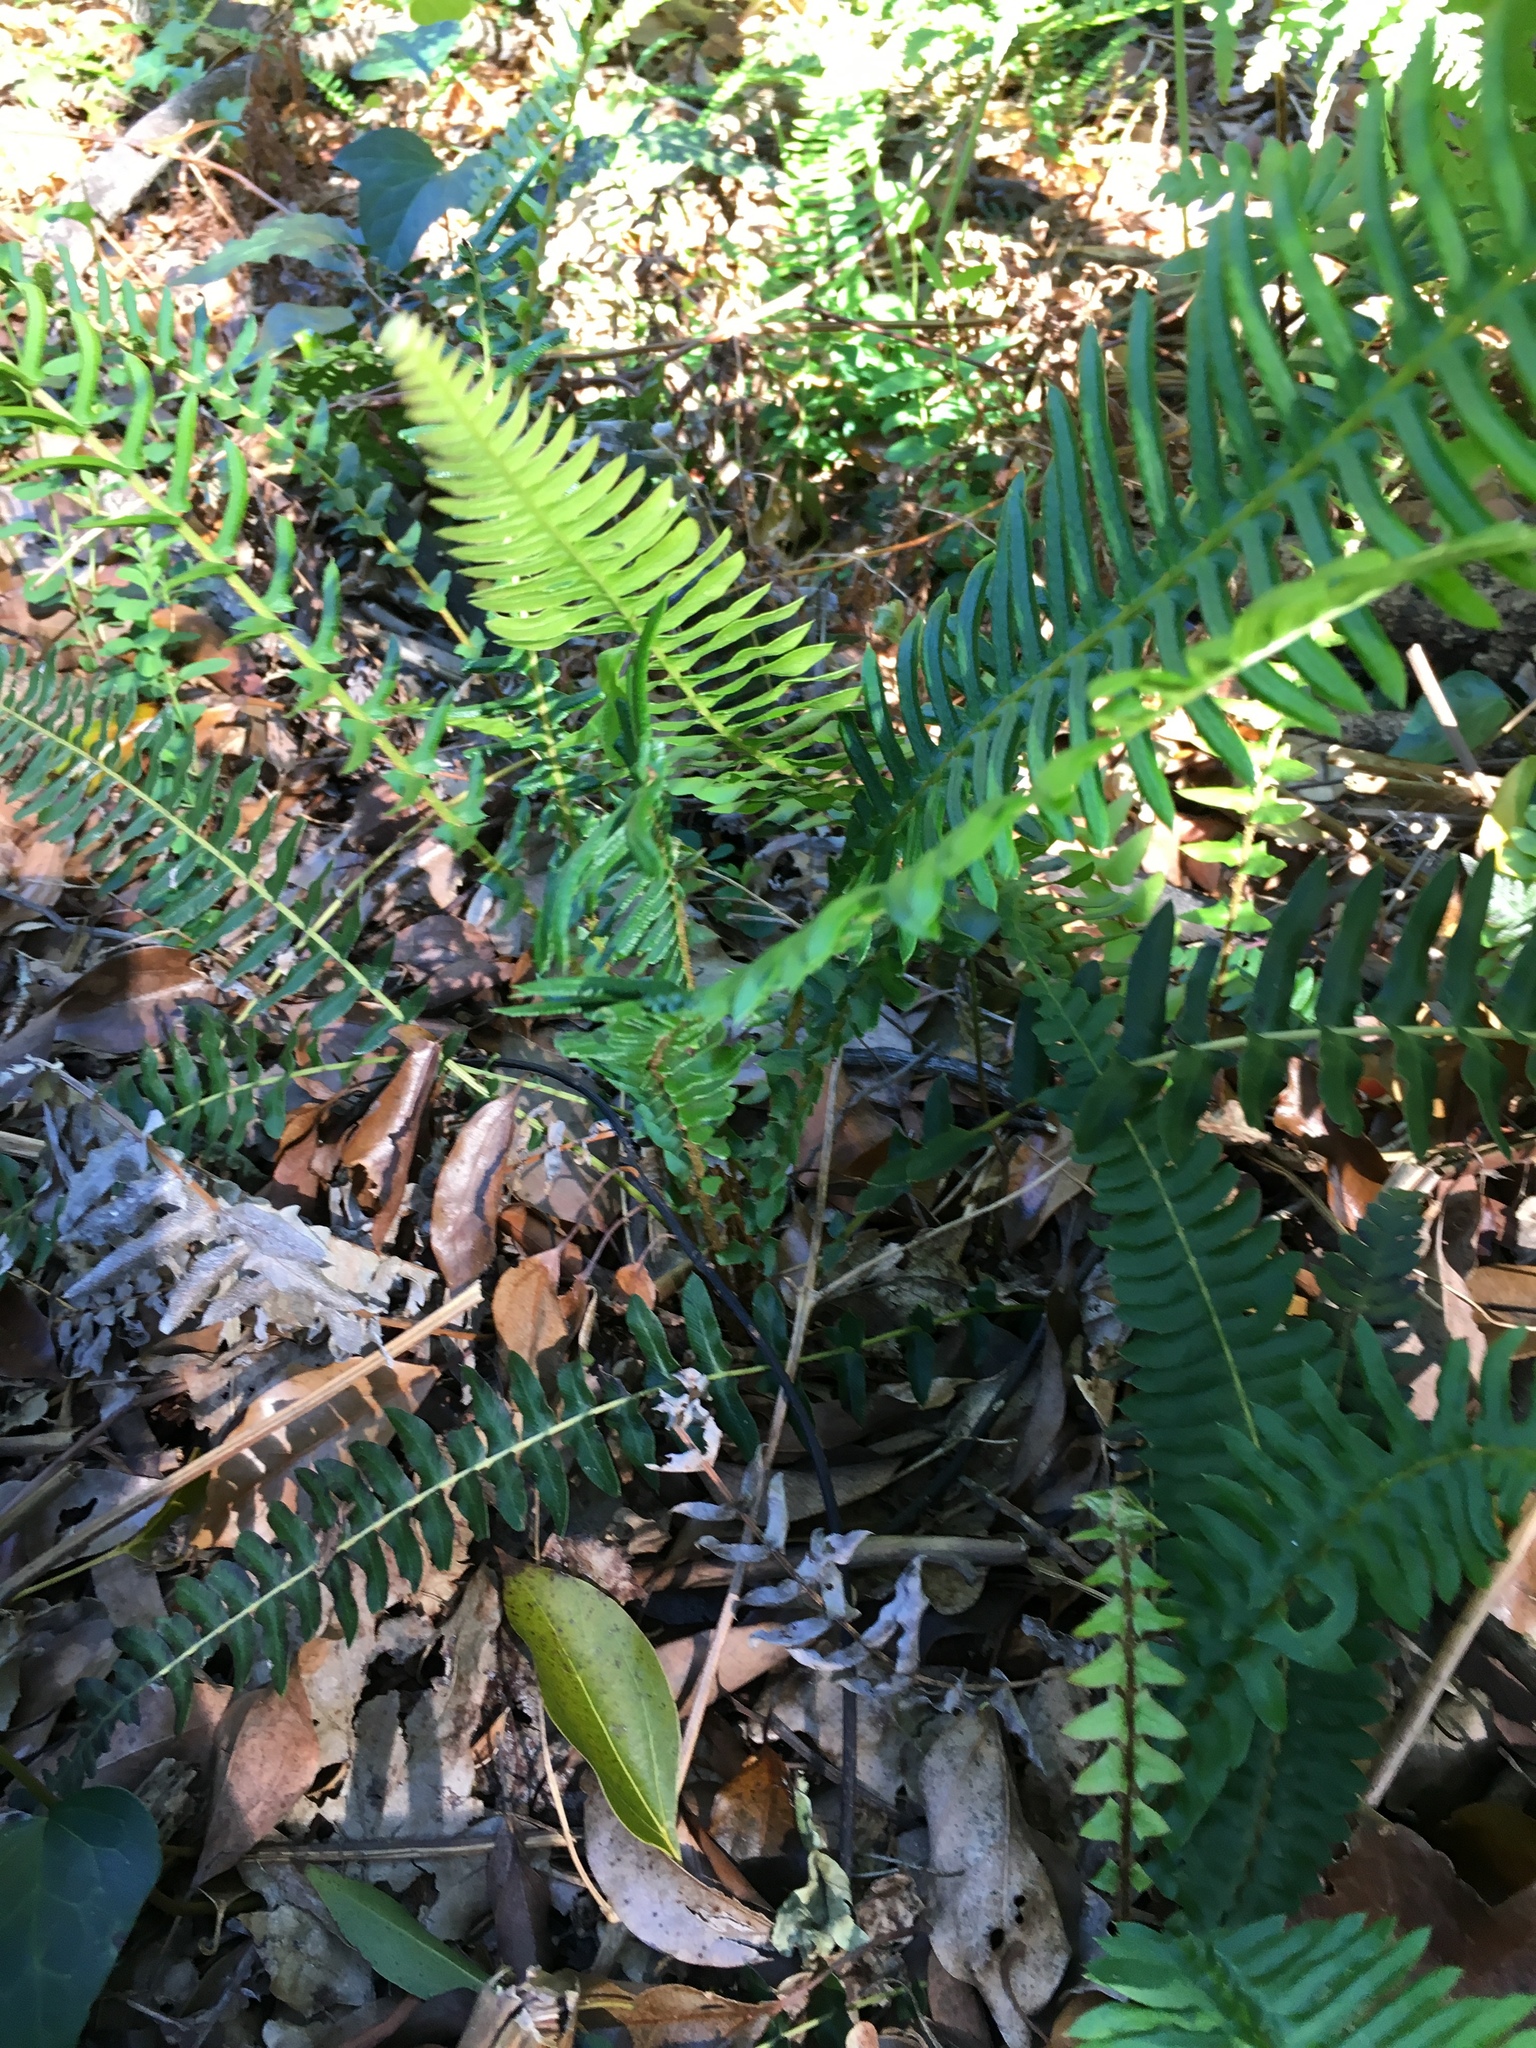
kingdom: Plantae
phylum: Tracheophyta
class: Polypodiopsida
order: Polypodiales
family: Blechnaceae
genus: Blechnum
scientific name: Blechnum punctulatum
